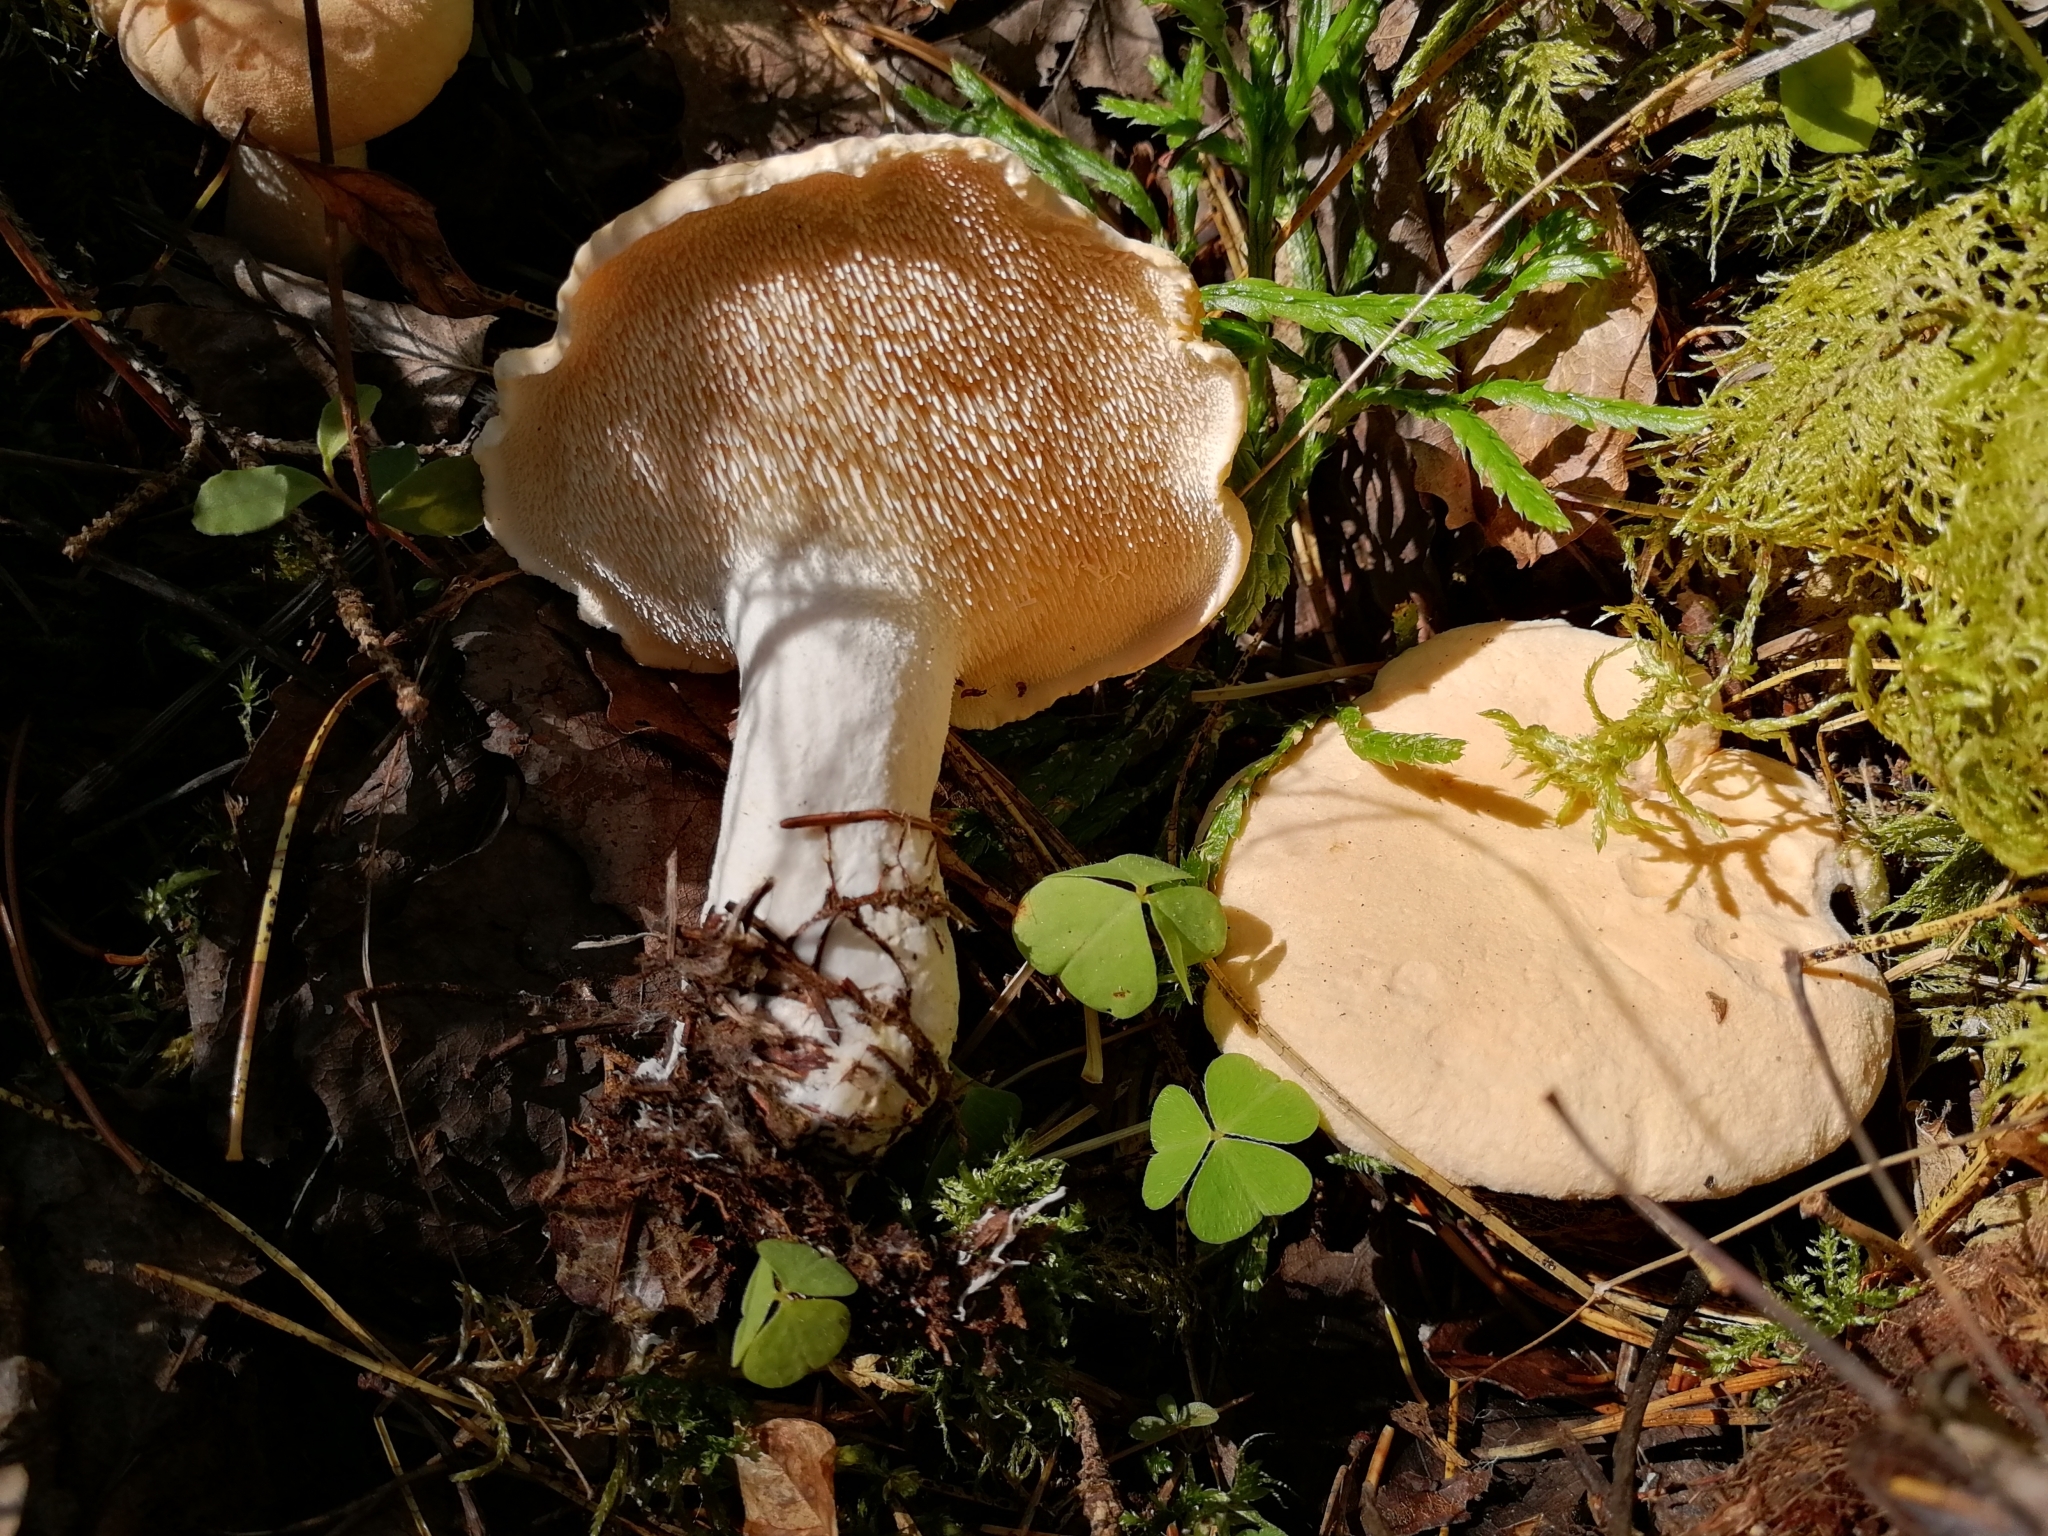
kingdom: Fungi
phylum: Basidiomycota
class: Agaricomycetes
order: Cantharellales
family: Hydnaceae
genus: Hydnum
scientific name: Hydnum repandum
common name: Wood hedgehog
